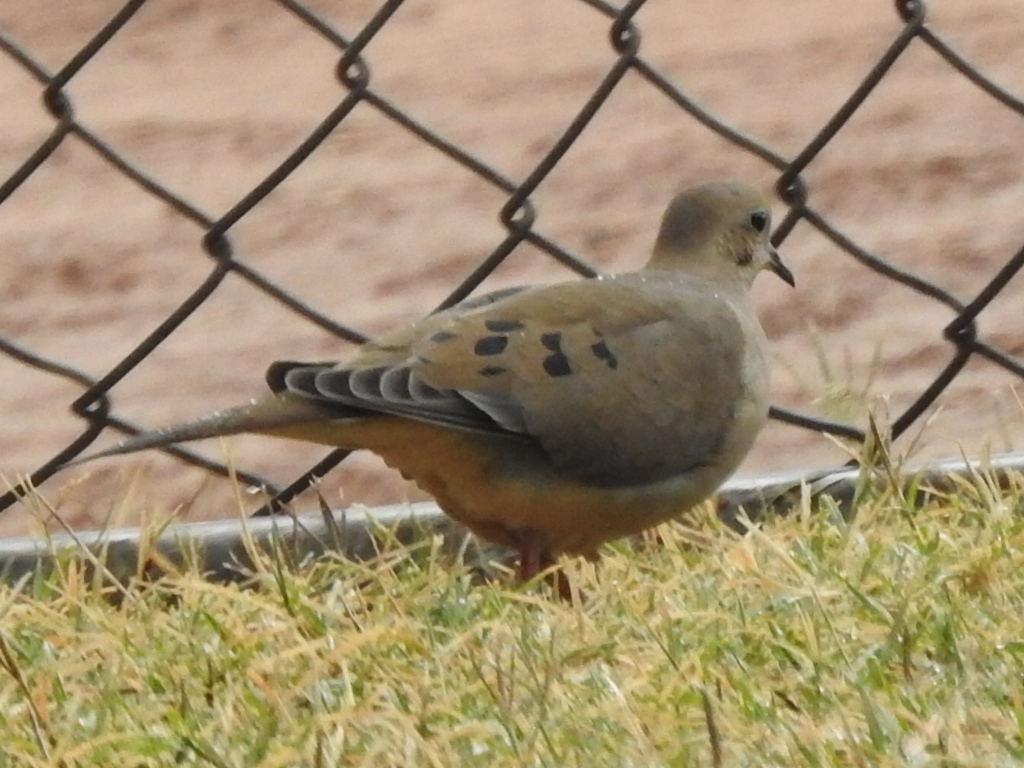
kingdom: Animalia
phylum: Chordata
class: Aves
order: Columbiformes
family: Columbidae
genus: Zenaida
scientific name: Zenaida macroura
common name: Mourning dove
